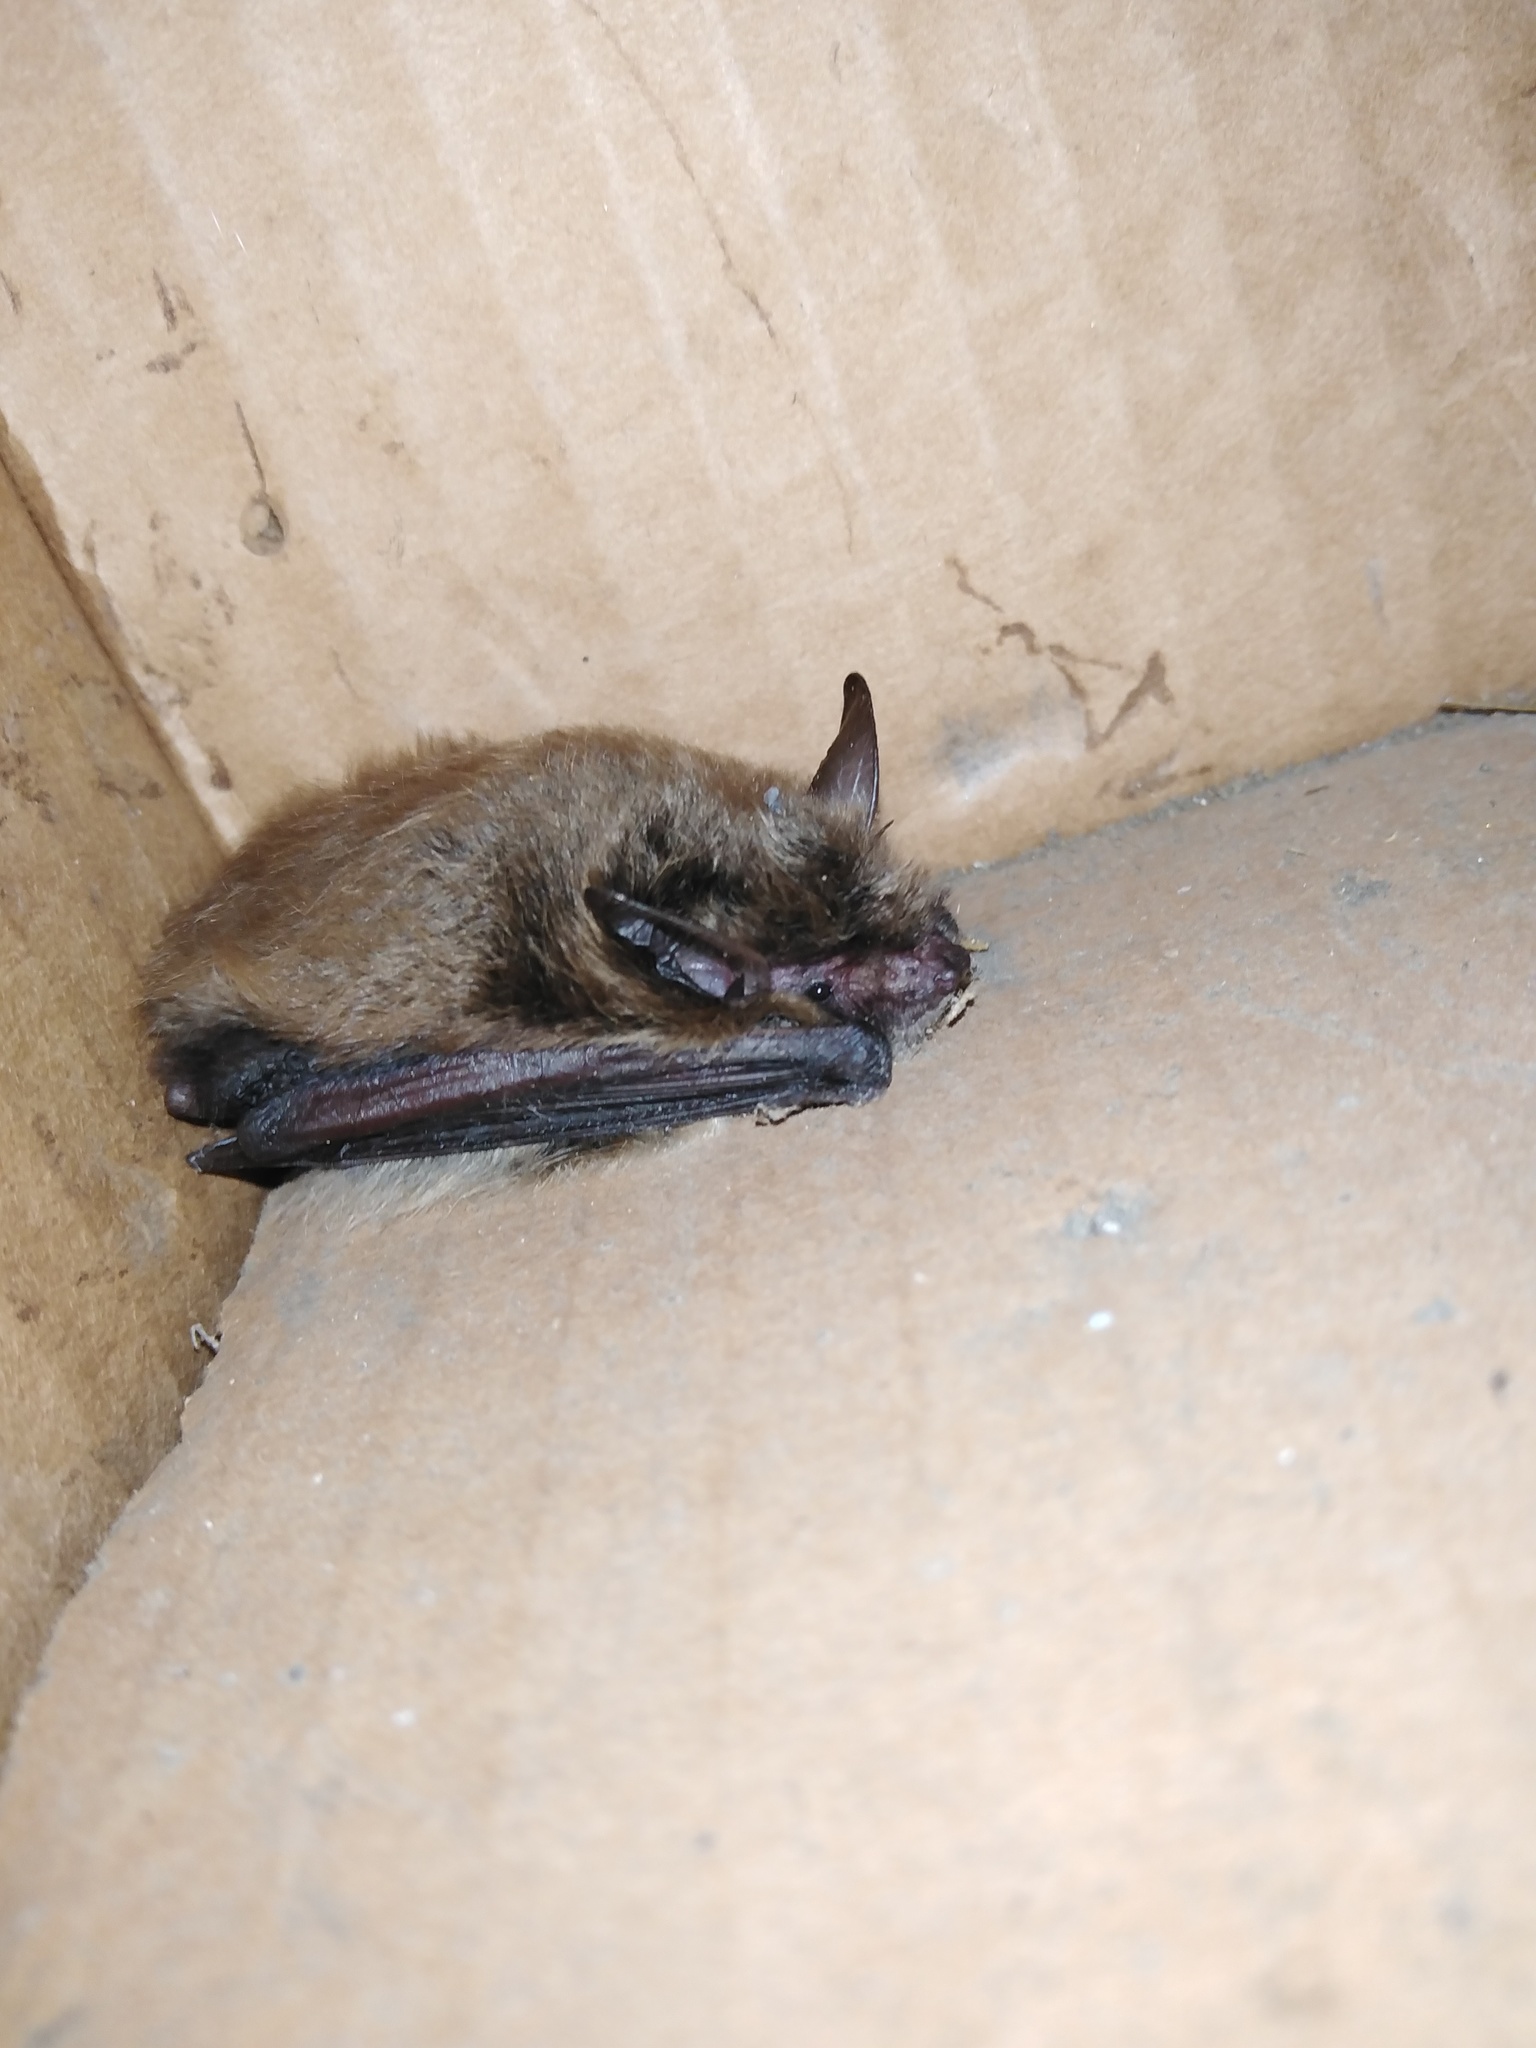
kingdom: Animalia
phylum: Chordata
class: Mammalia
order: Chiroptera
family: Vespertilionidae
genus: Myotis
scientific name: Myotis
